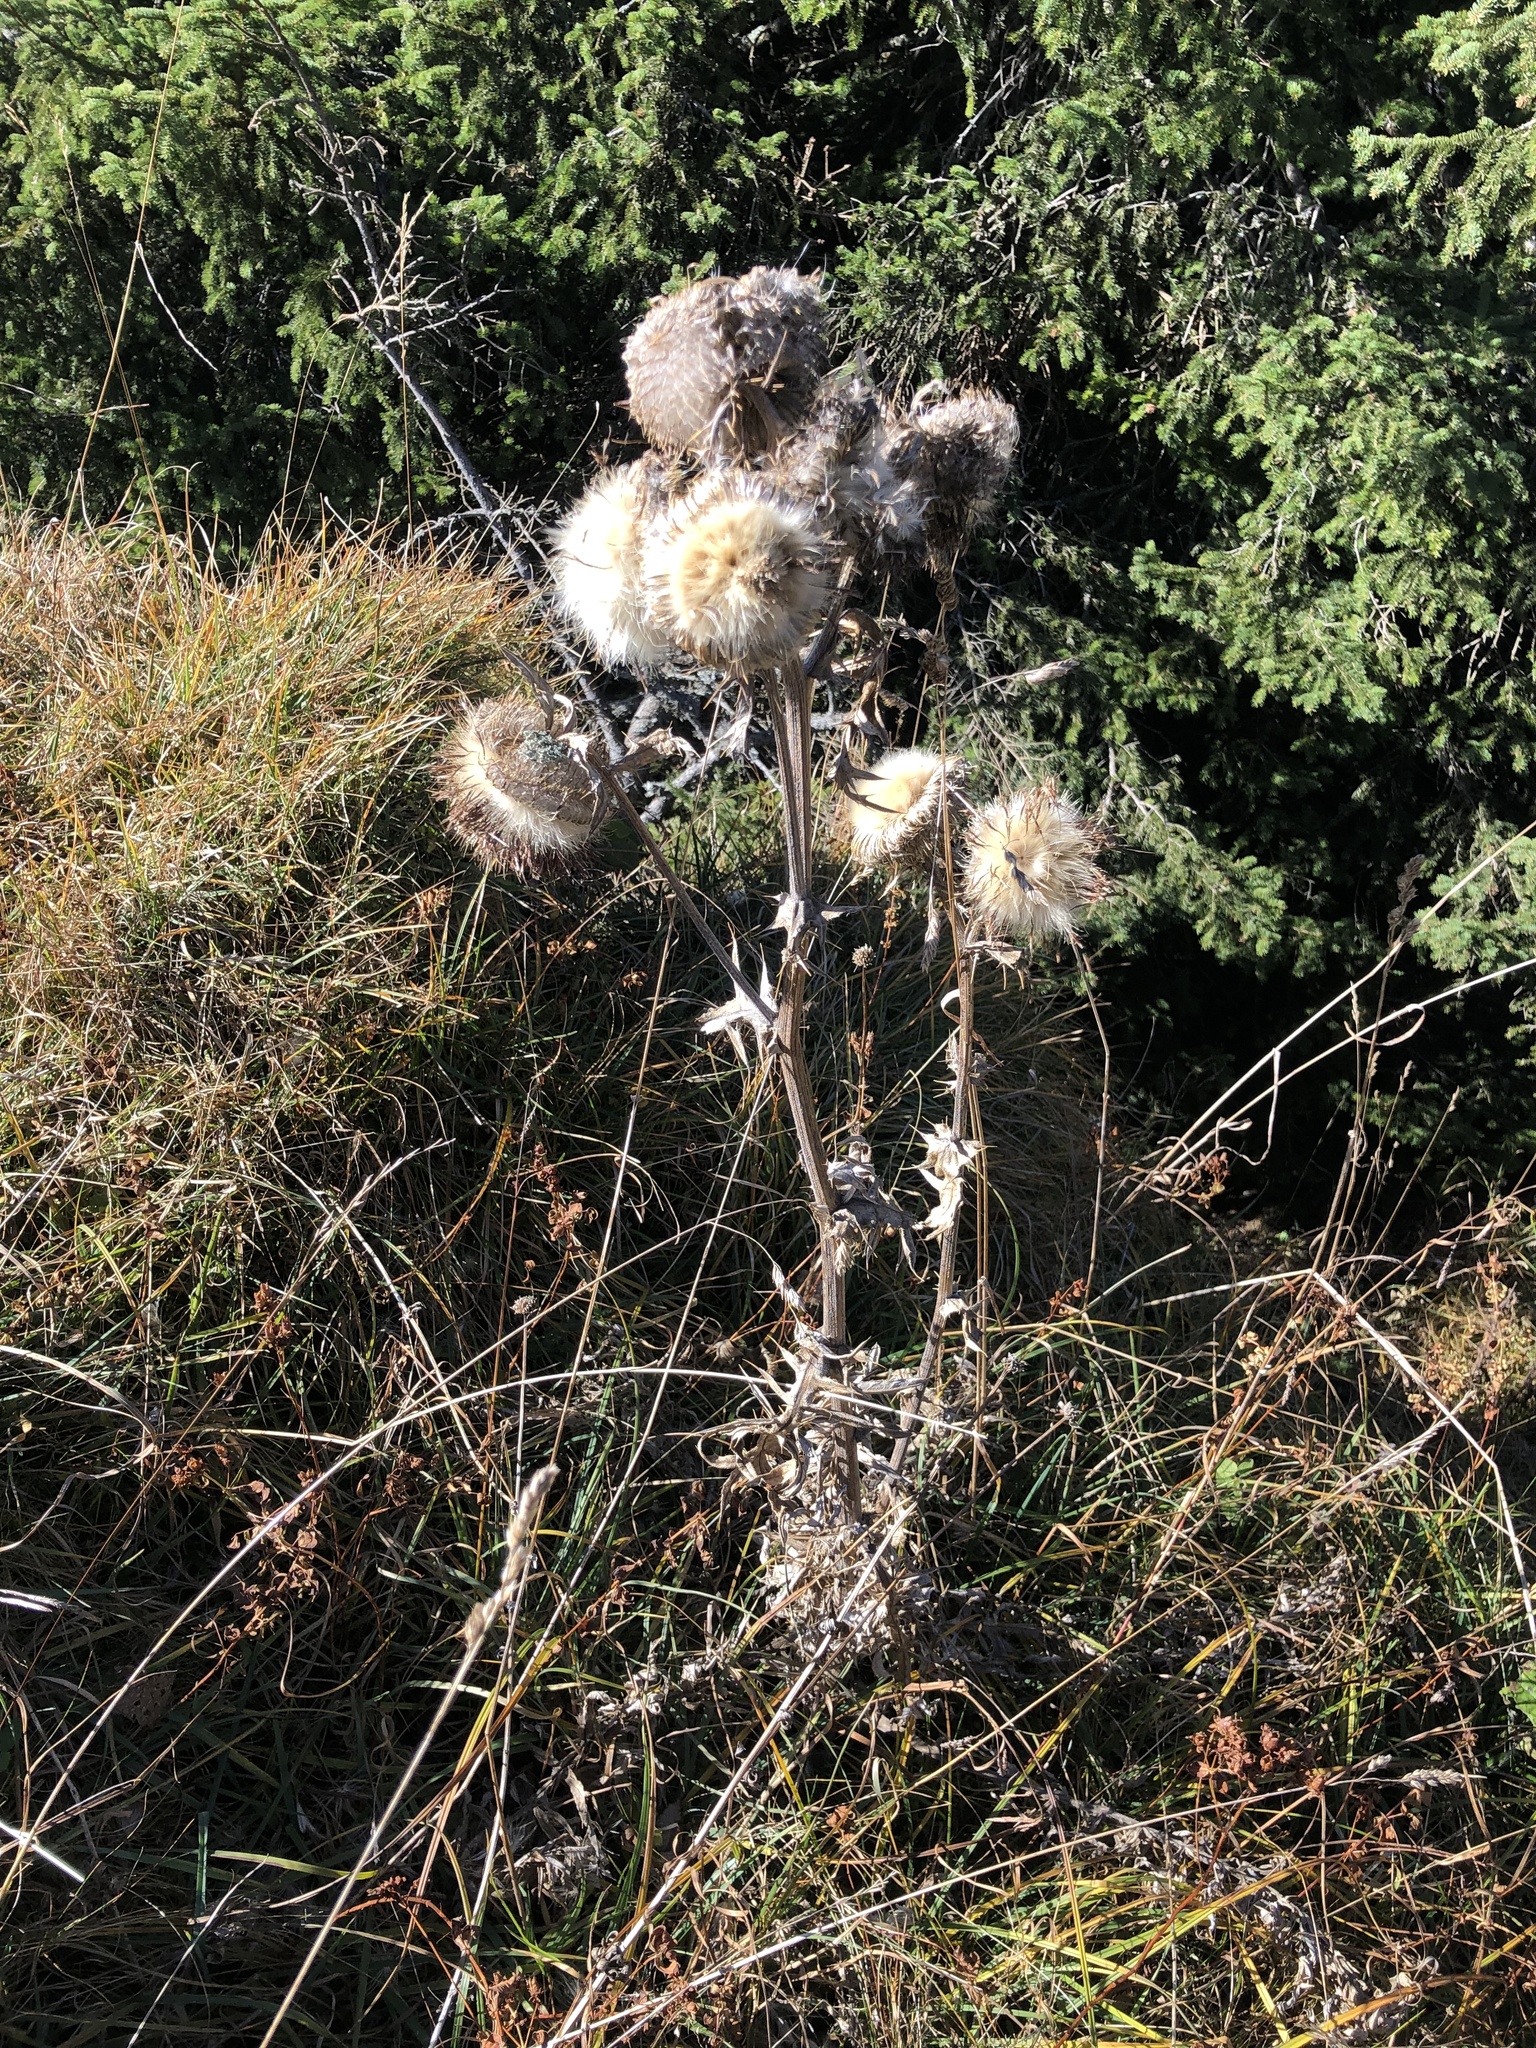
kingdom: Plantae
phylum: Tracheophyta
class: Magnoliopsida
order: Asterales
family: Asteraceae
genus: Lophiolepis
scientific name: Lophiolepis eriophora
